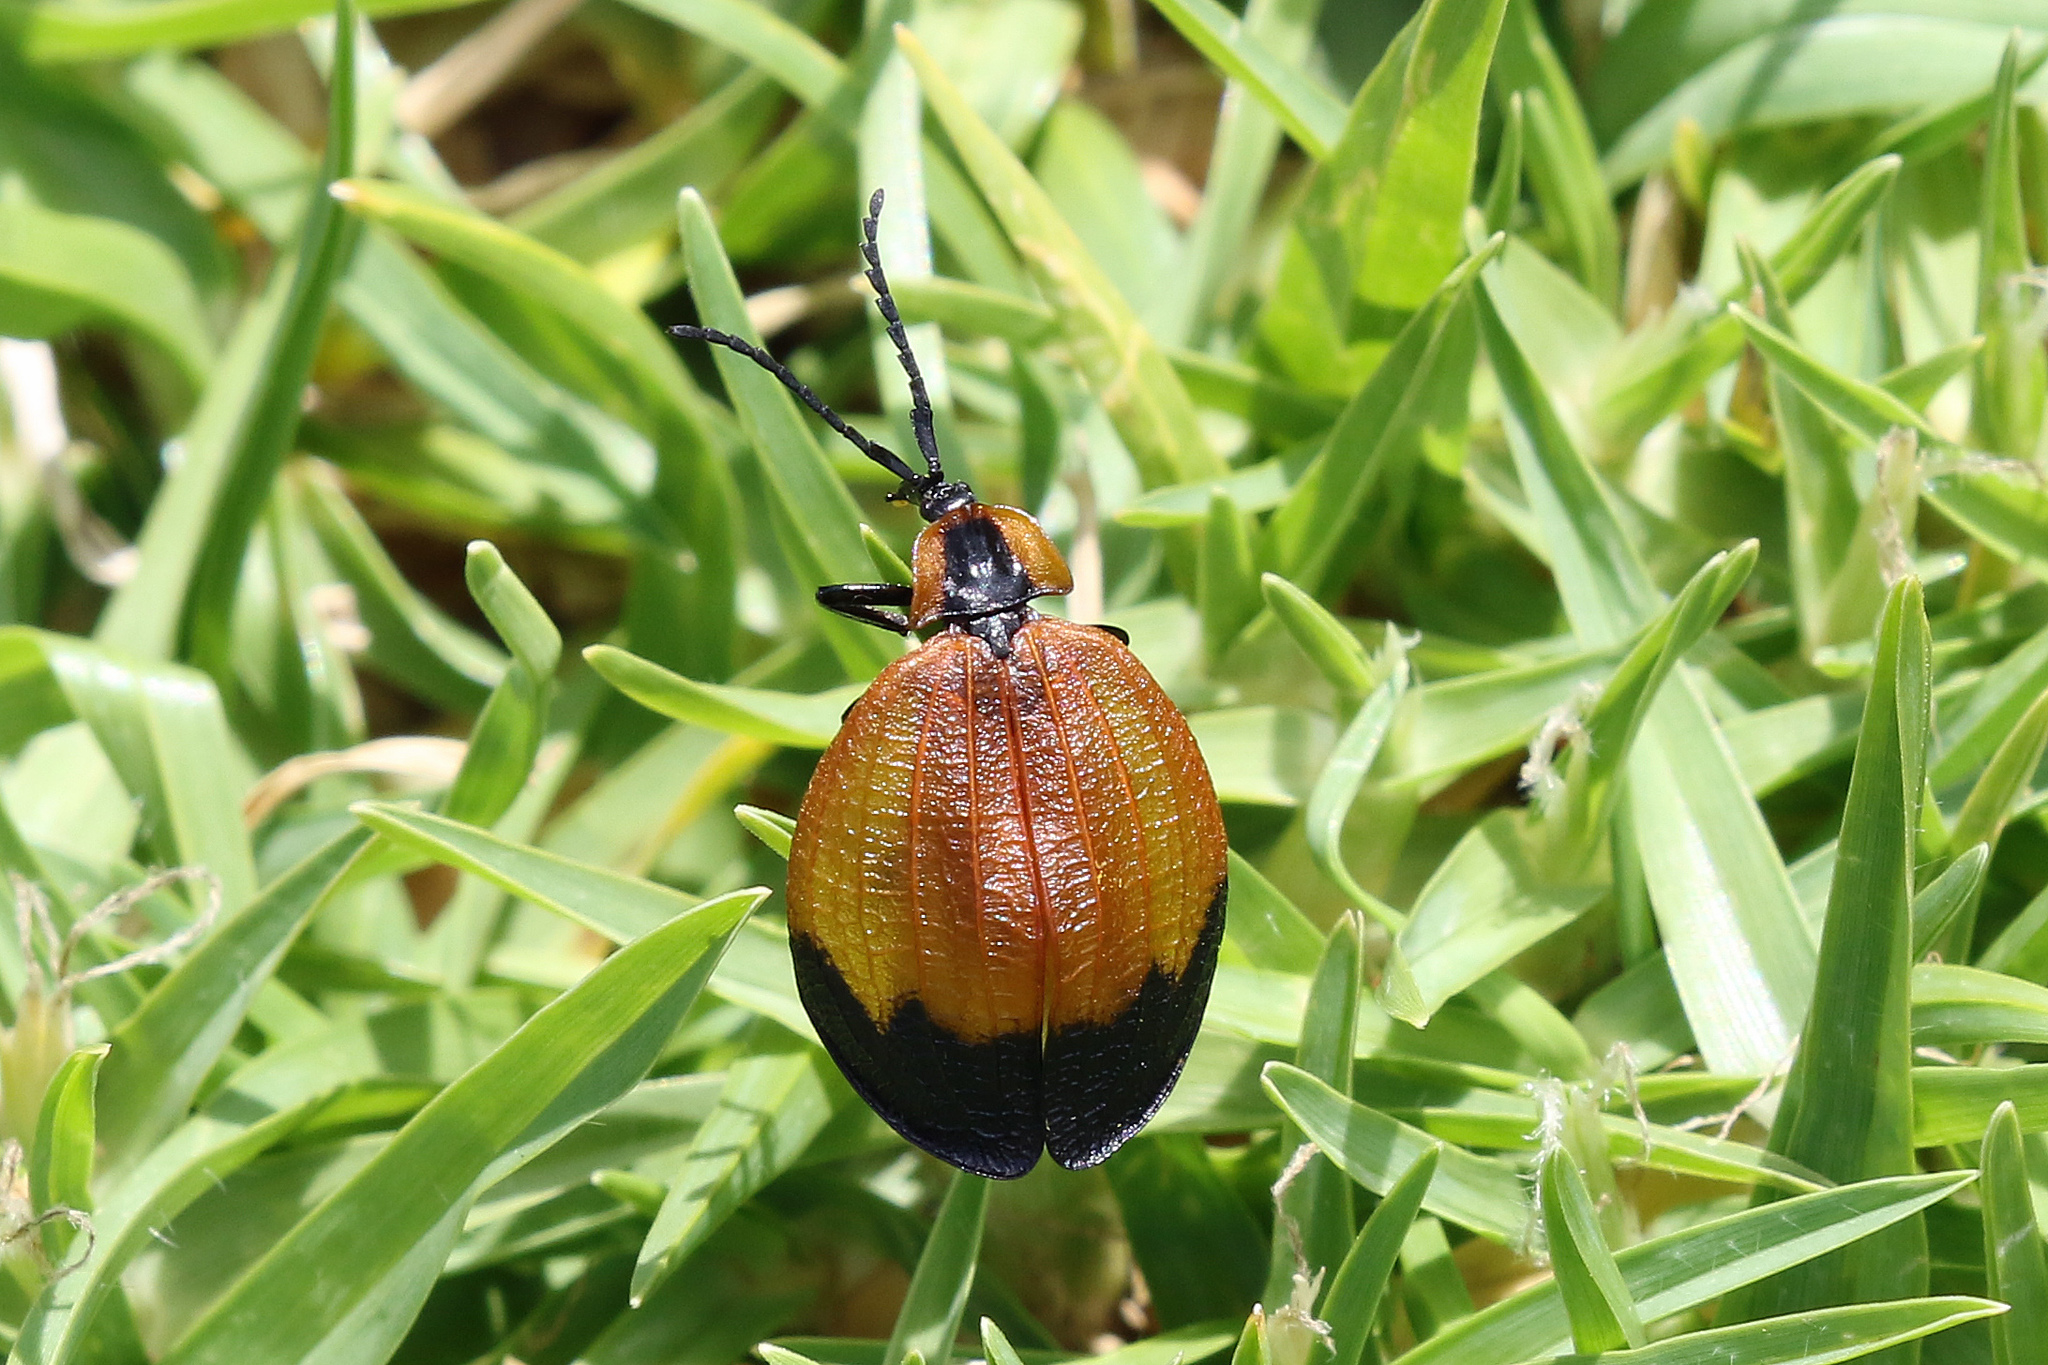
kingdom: Animalia
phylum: Arthropoda
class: Insecta
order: Coleoptera
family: Lycidae
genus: Lycus
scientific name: Lycus
